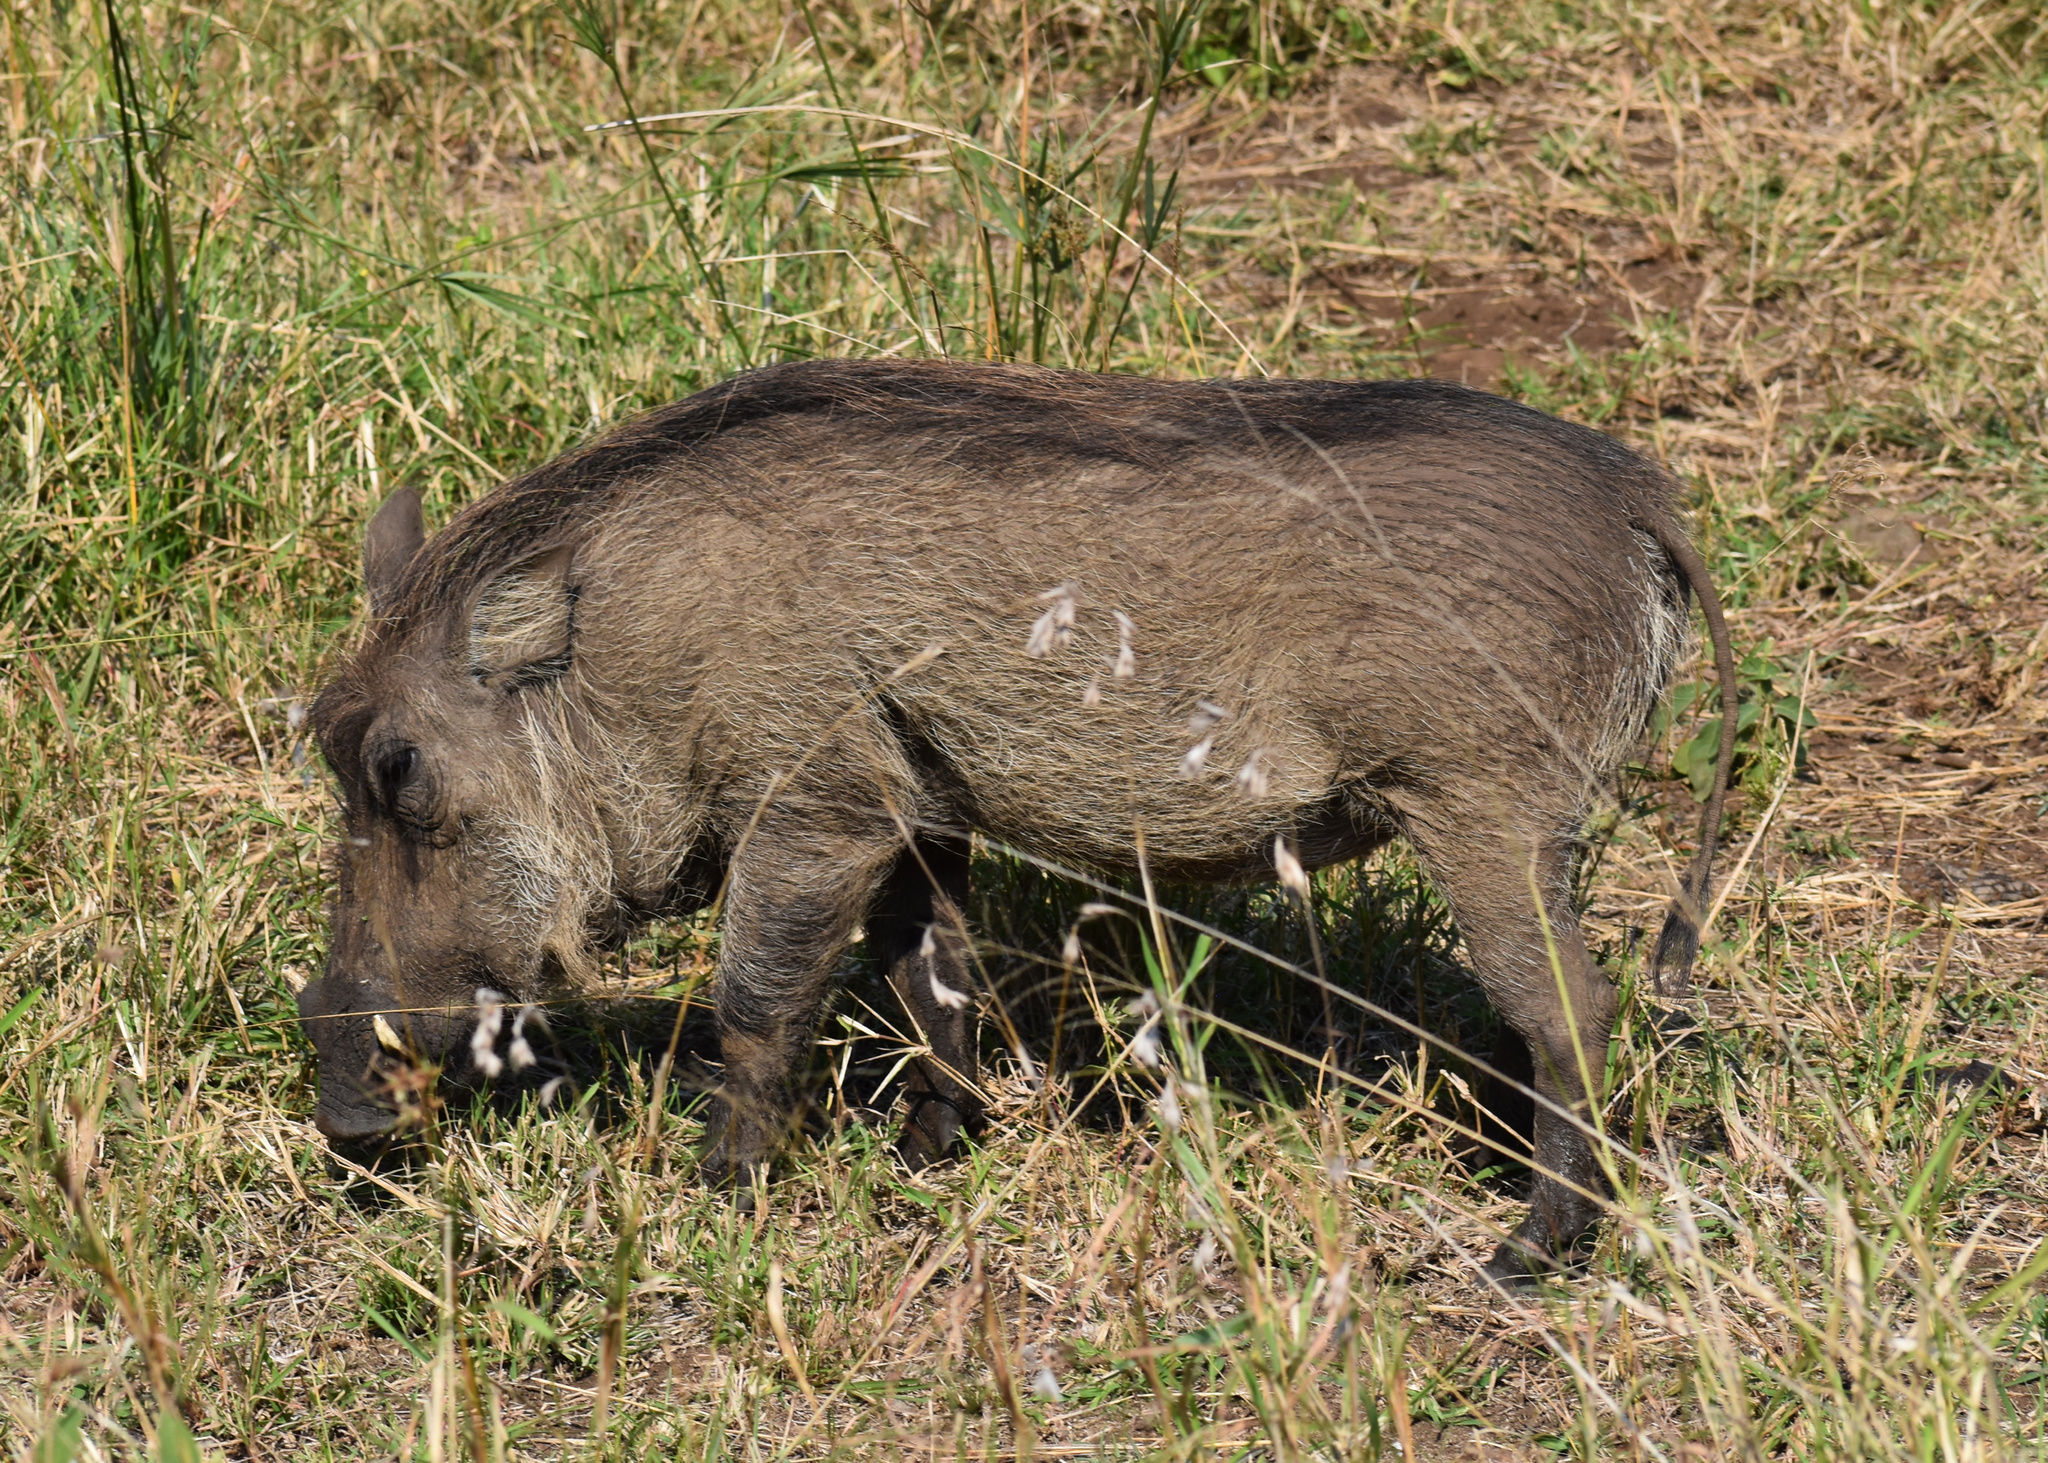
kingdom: Animalia
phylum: Chordata
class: Mammalia
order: Artiodactyla
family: Suidae
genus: Phacochoerus
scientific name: Phacochoerus africanus
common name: Common warthog
